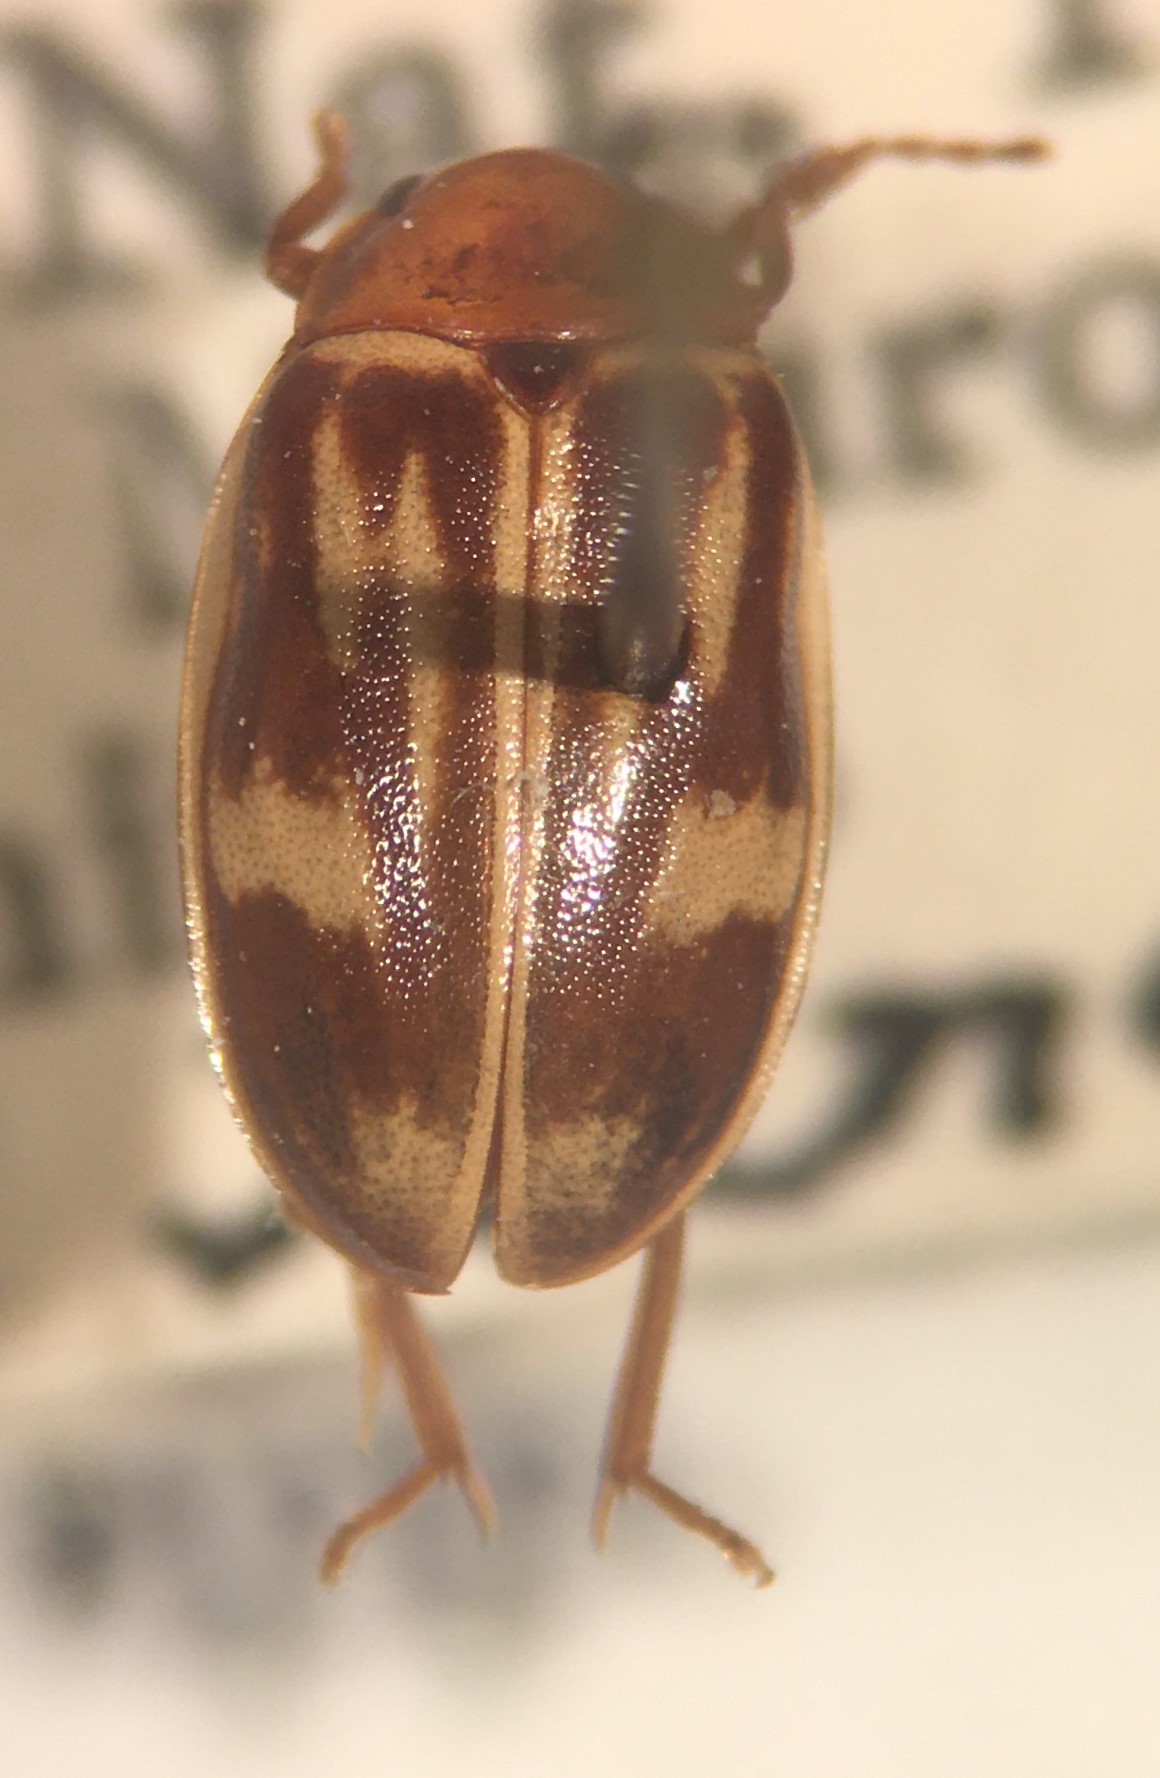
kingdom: Animalia
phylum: Arthropoda
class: Insecta
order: Coleoptera
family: Scirtidae
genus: Ora
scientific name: Ora troberti
